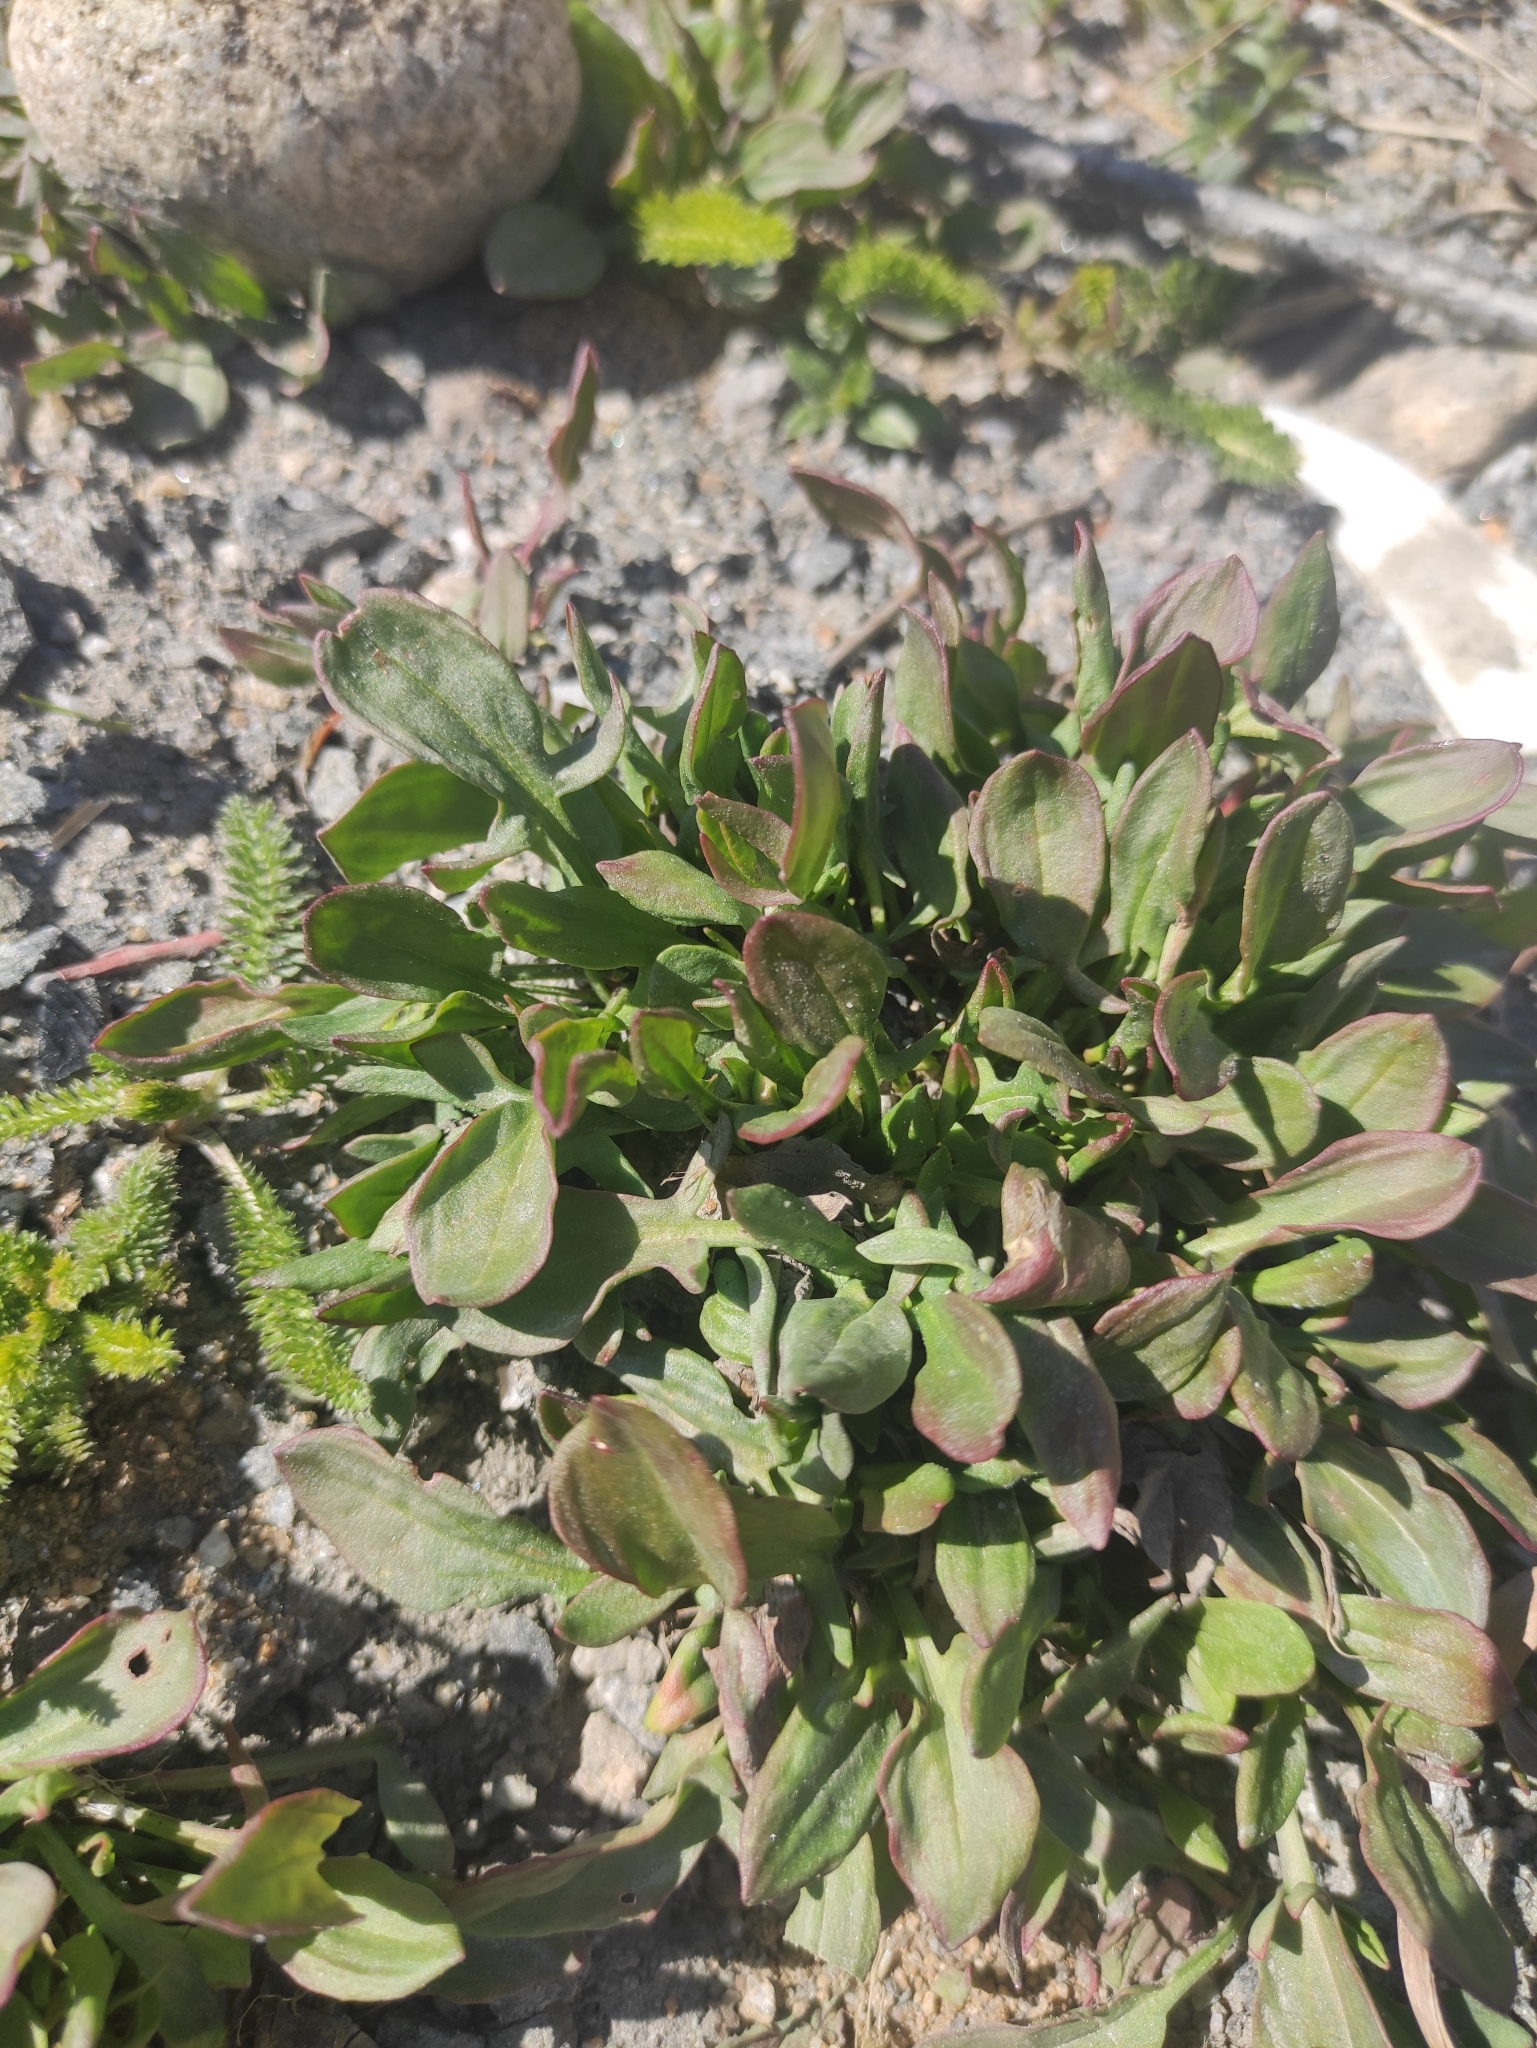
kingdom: Plantae
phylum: Tracheophyta
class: Magnoliopsida
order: Caryophyllales
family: Polygonaceae
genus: Rumex
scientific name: Rumex acetosella
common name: Common sheep sorrel
